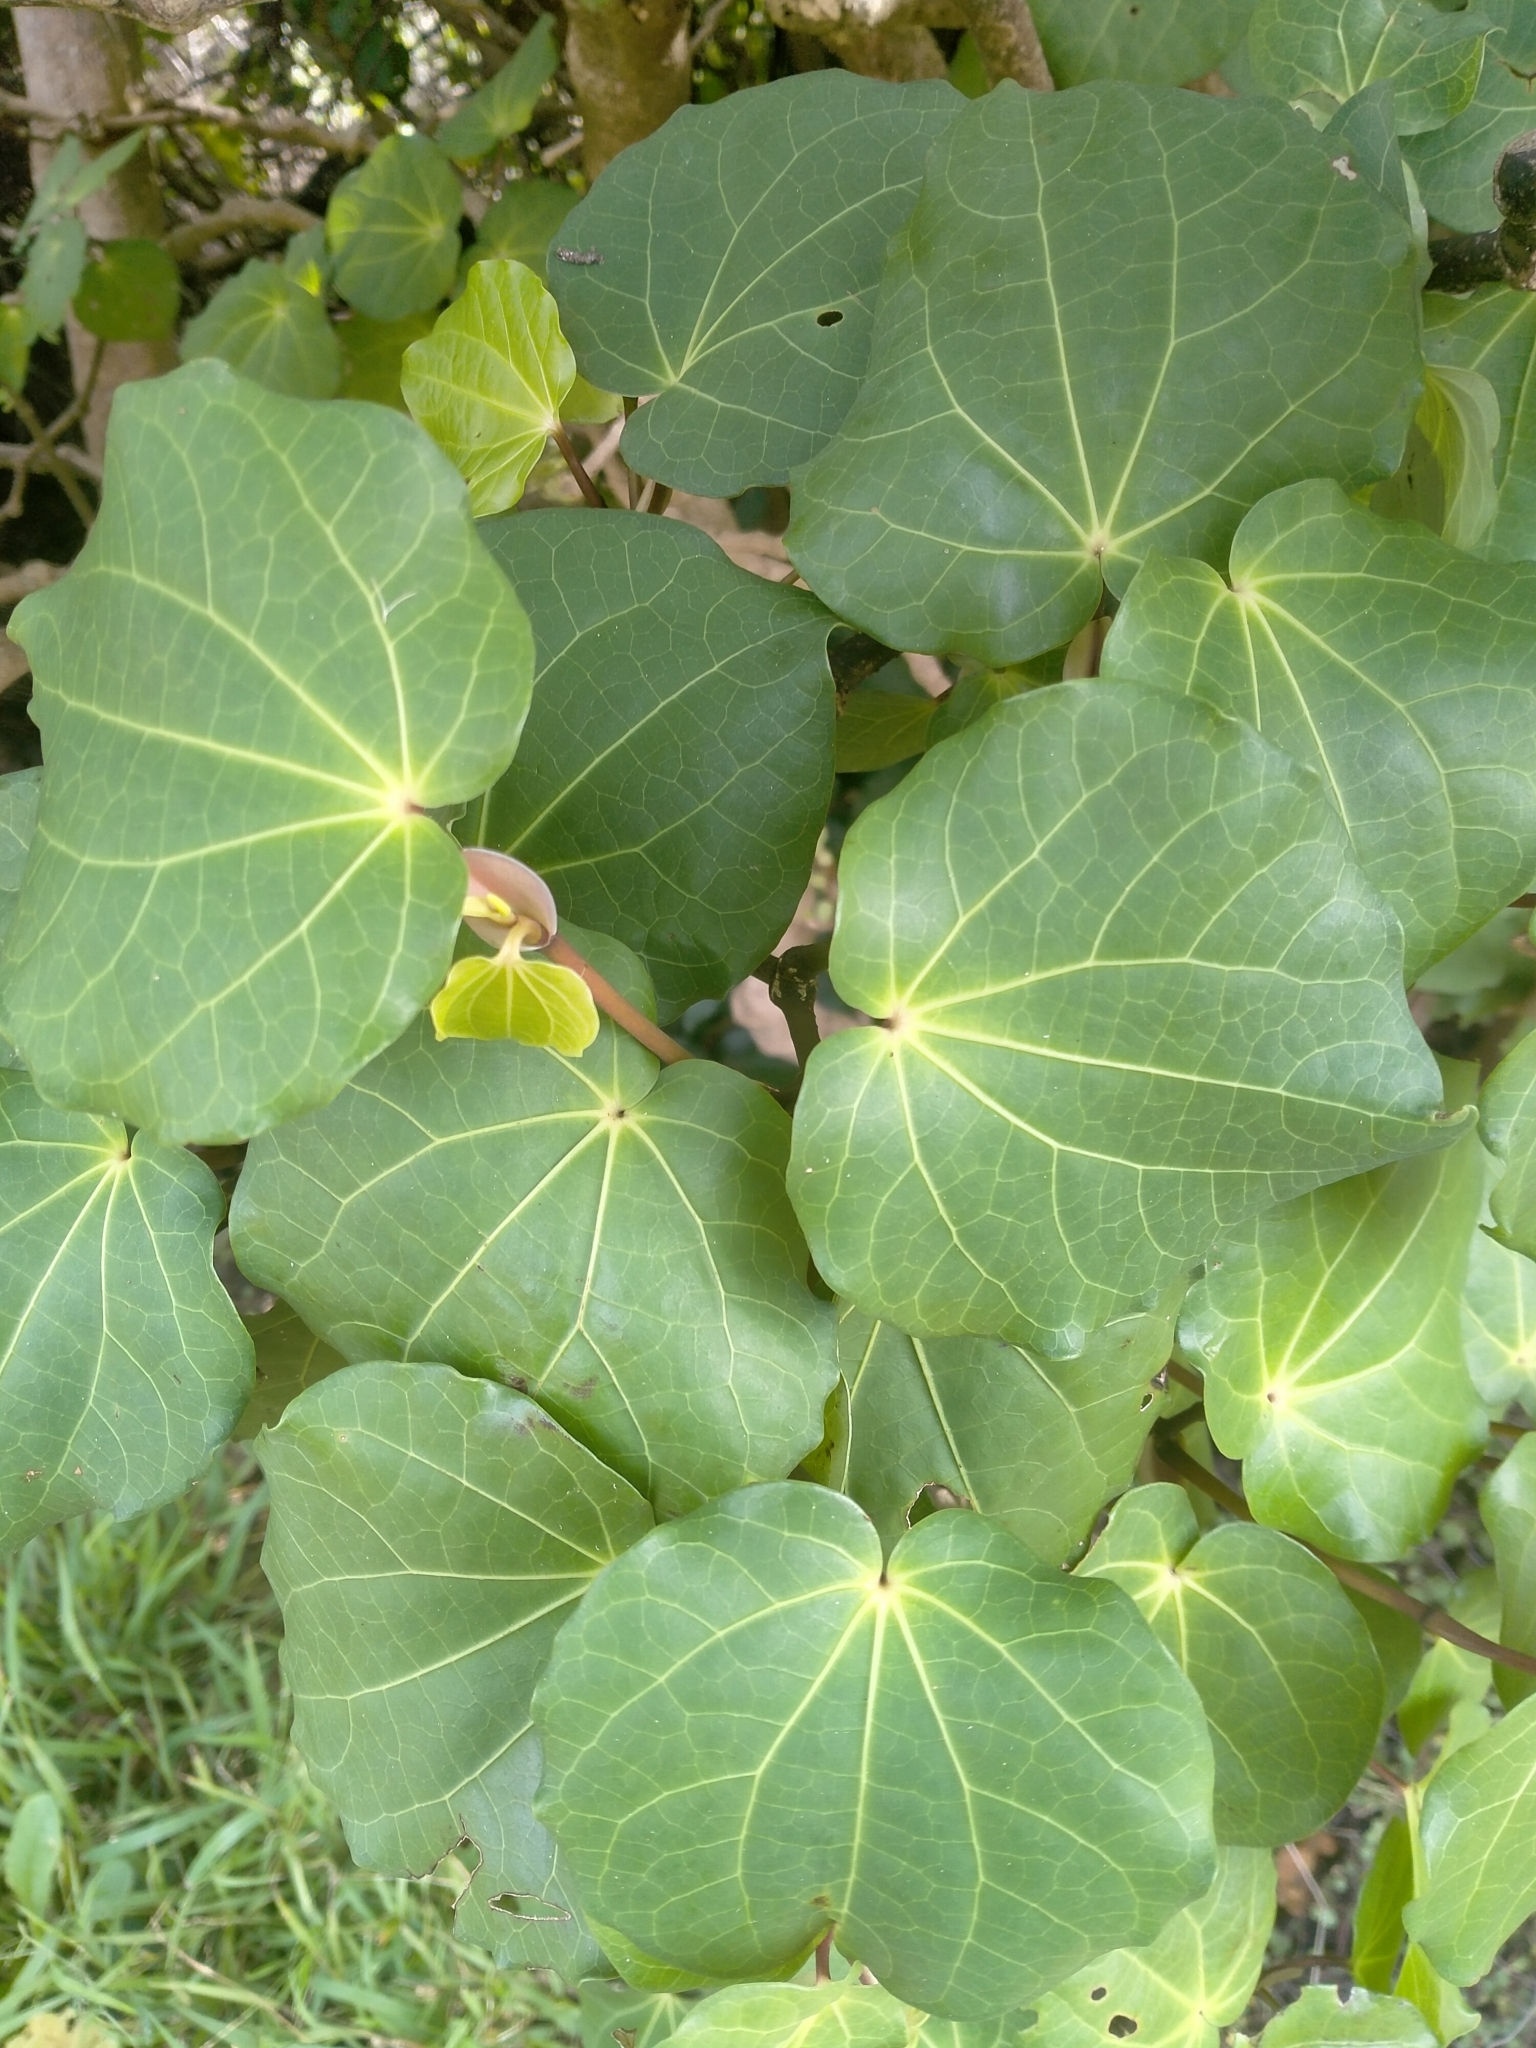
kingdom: Plantae
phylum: Tracheophyta
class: Magnoliopsida
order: Piperales
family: Piperaceae
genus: Macropiper
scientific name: Macropiper excelsum
